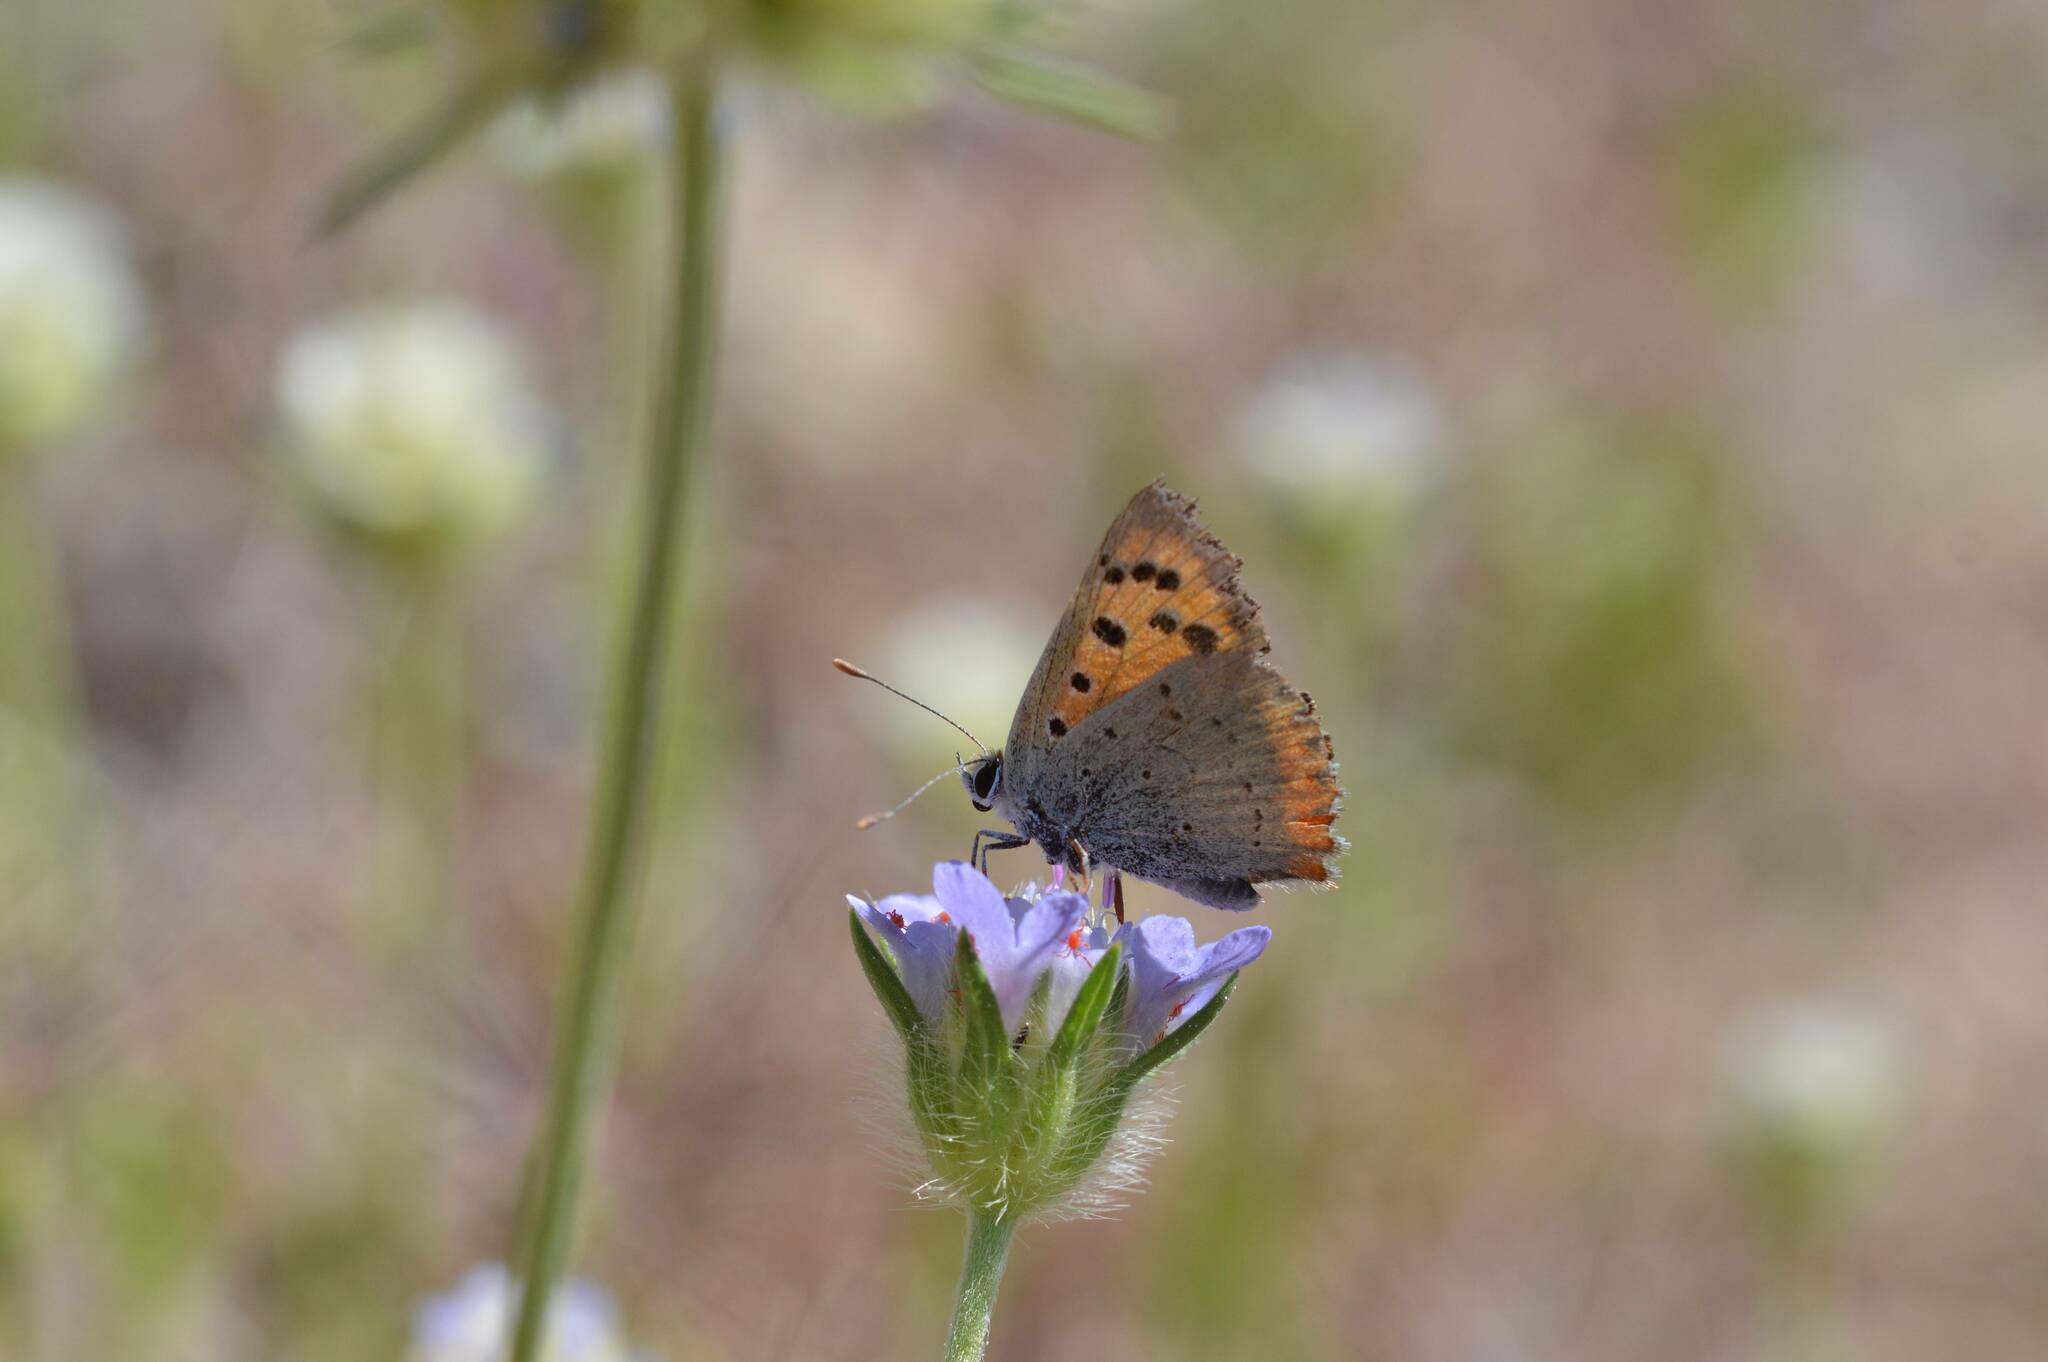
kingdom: Animalia
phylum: Arthropoda
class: Insecta
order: Lepidoptera
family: Lycaenidae
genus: Lycaena
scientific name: Lycaena phlaeas
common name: Small copper
